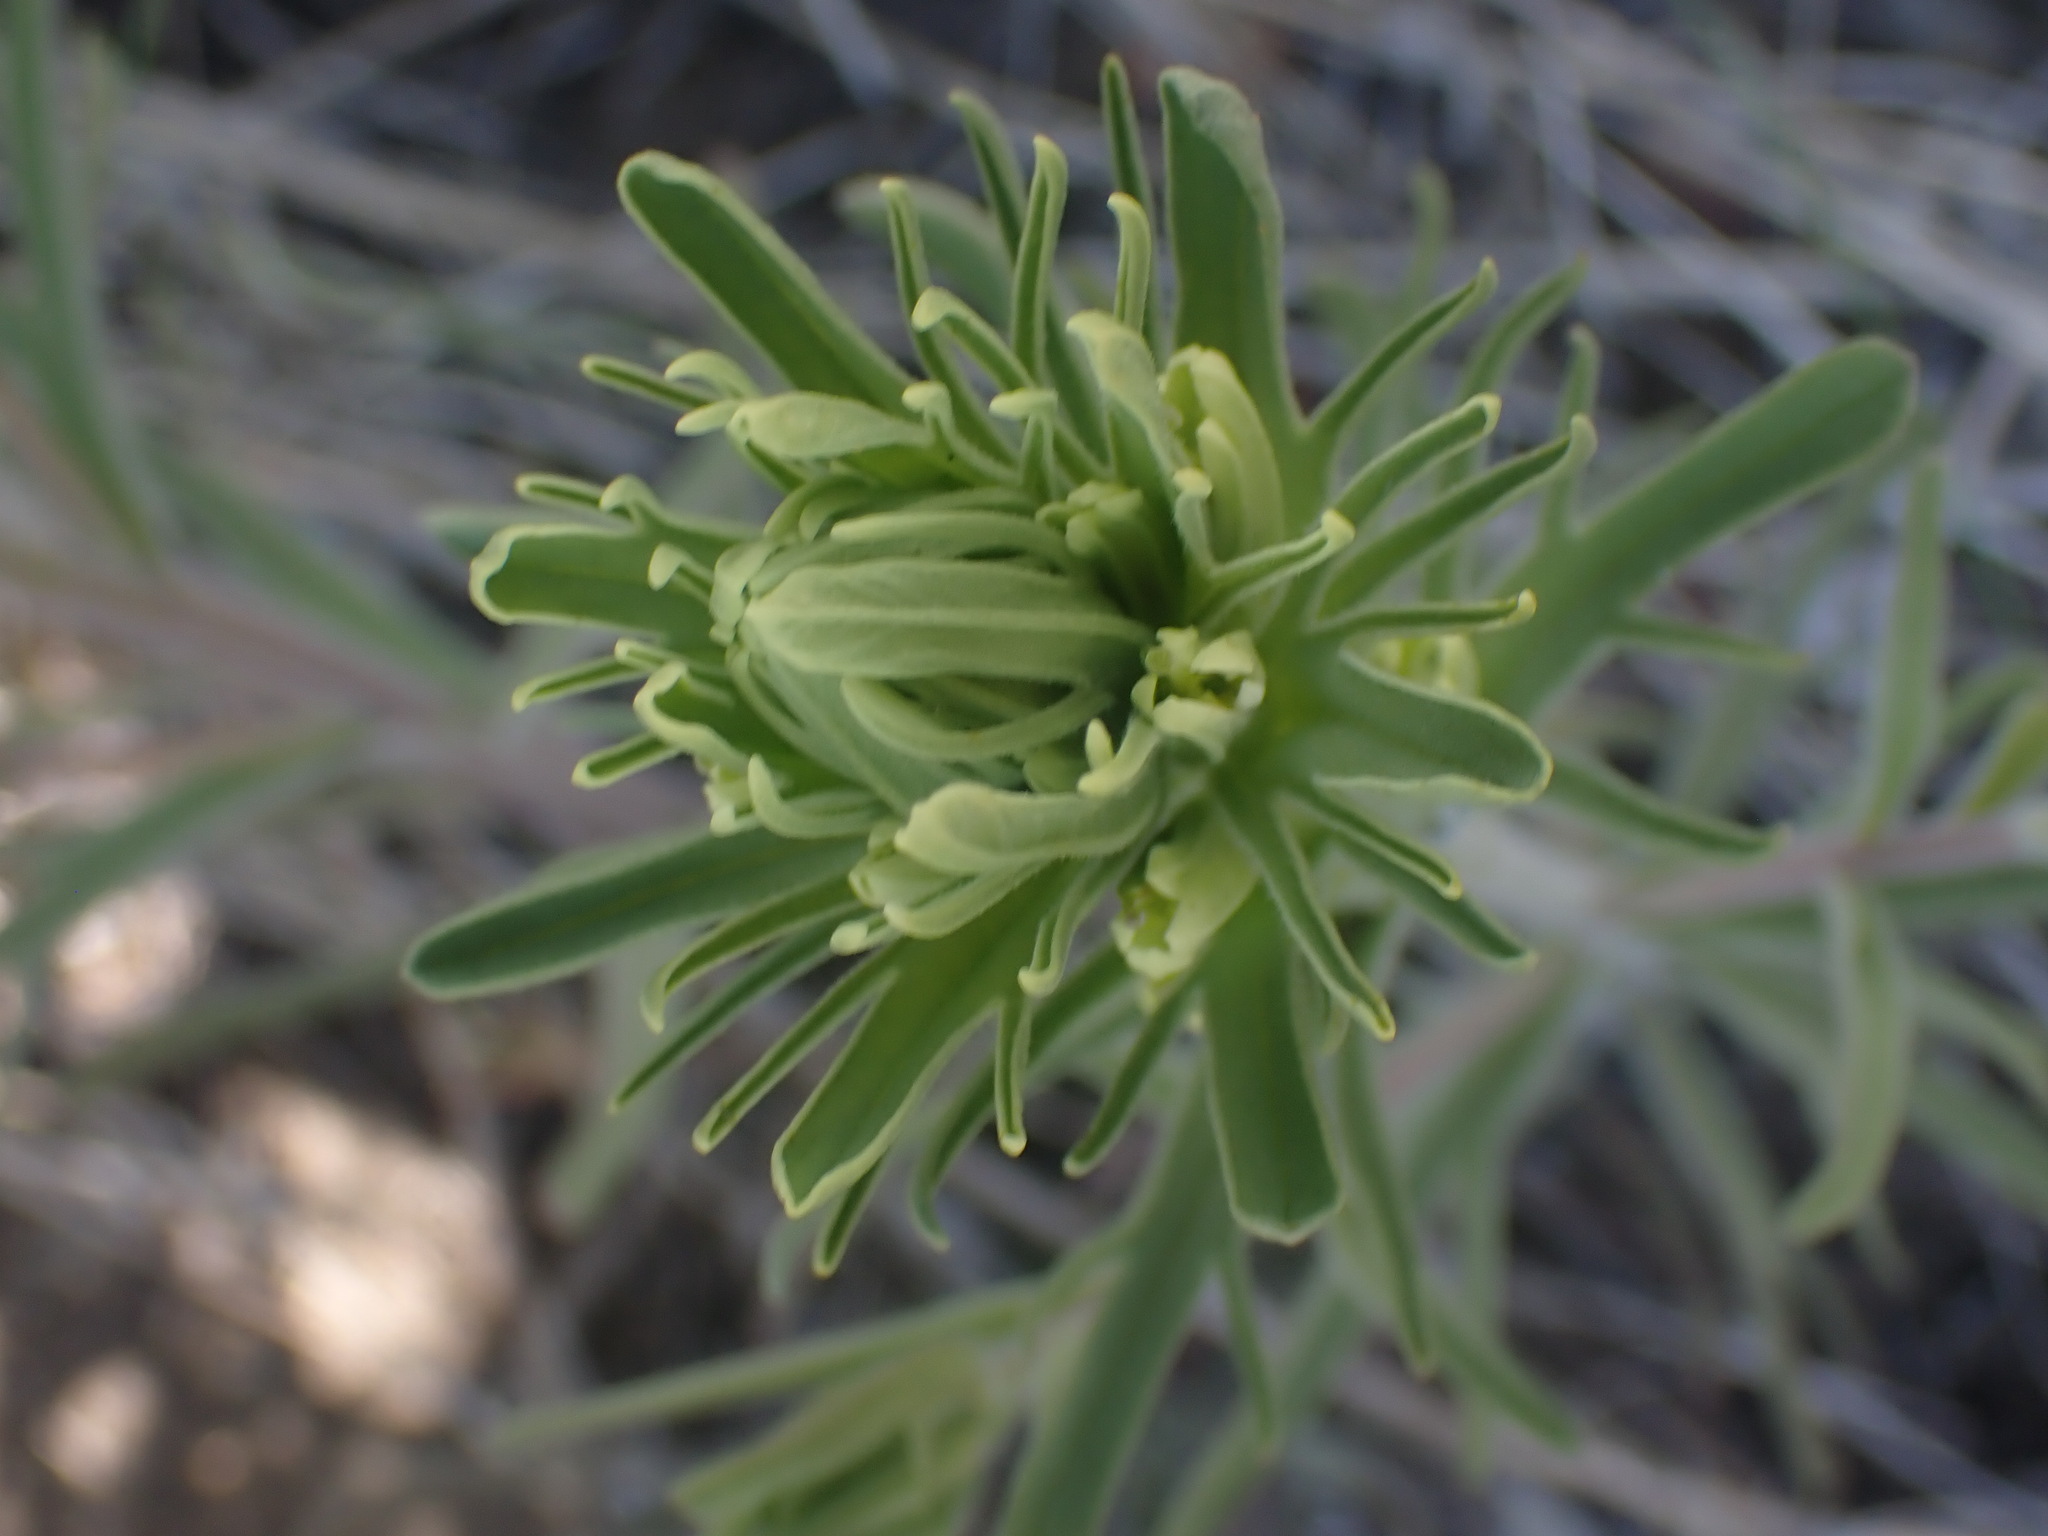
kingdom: Plantae
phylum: Tracheophyta
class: Magnoliopsida
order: Lamiales
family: Orobanchaceae
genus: Castilleja
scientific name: Castilleja thompsonii
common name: Thompson's paintbrush
